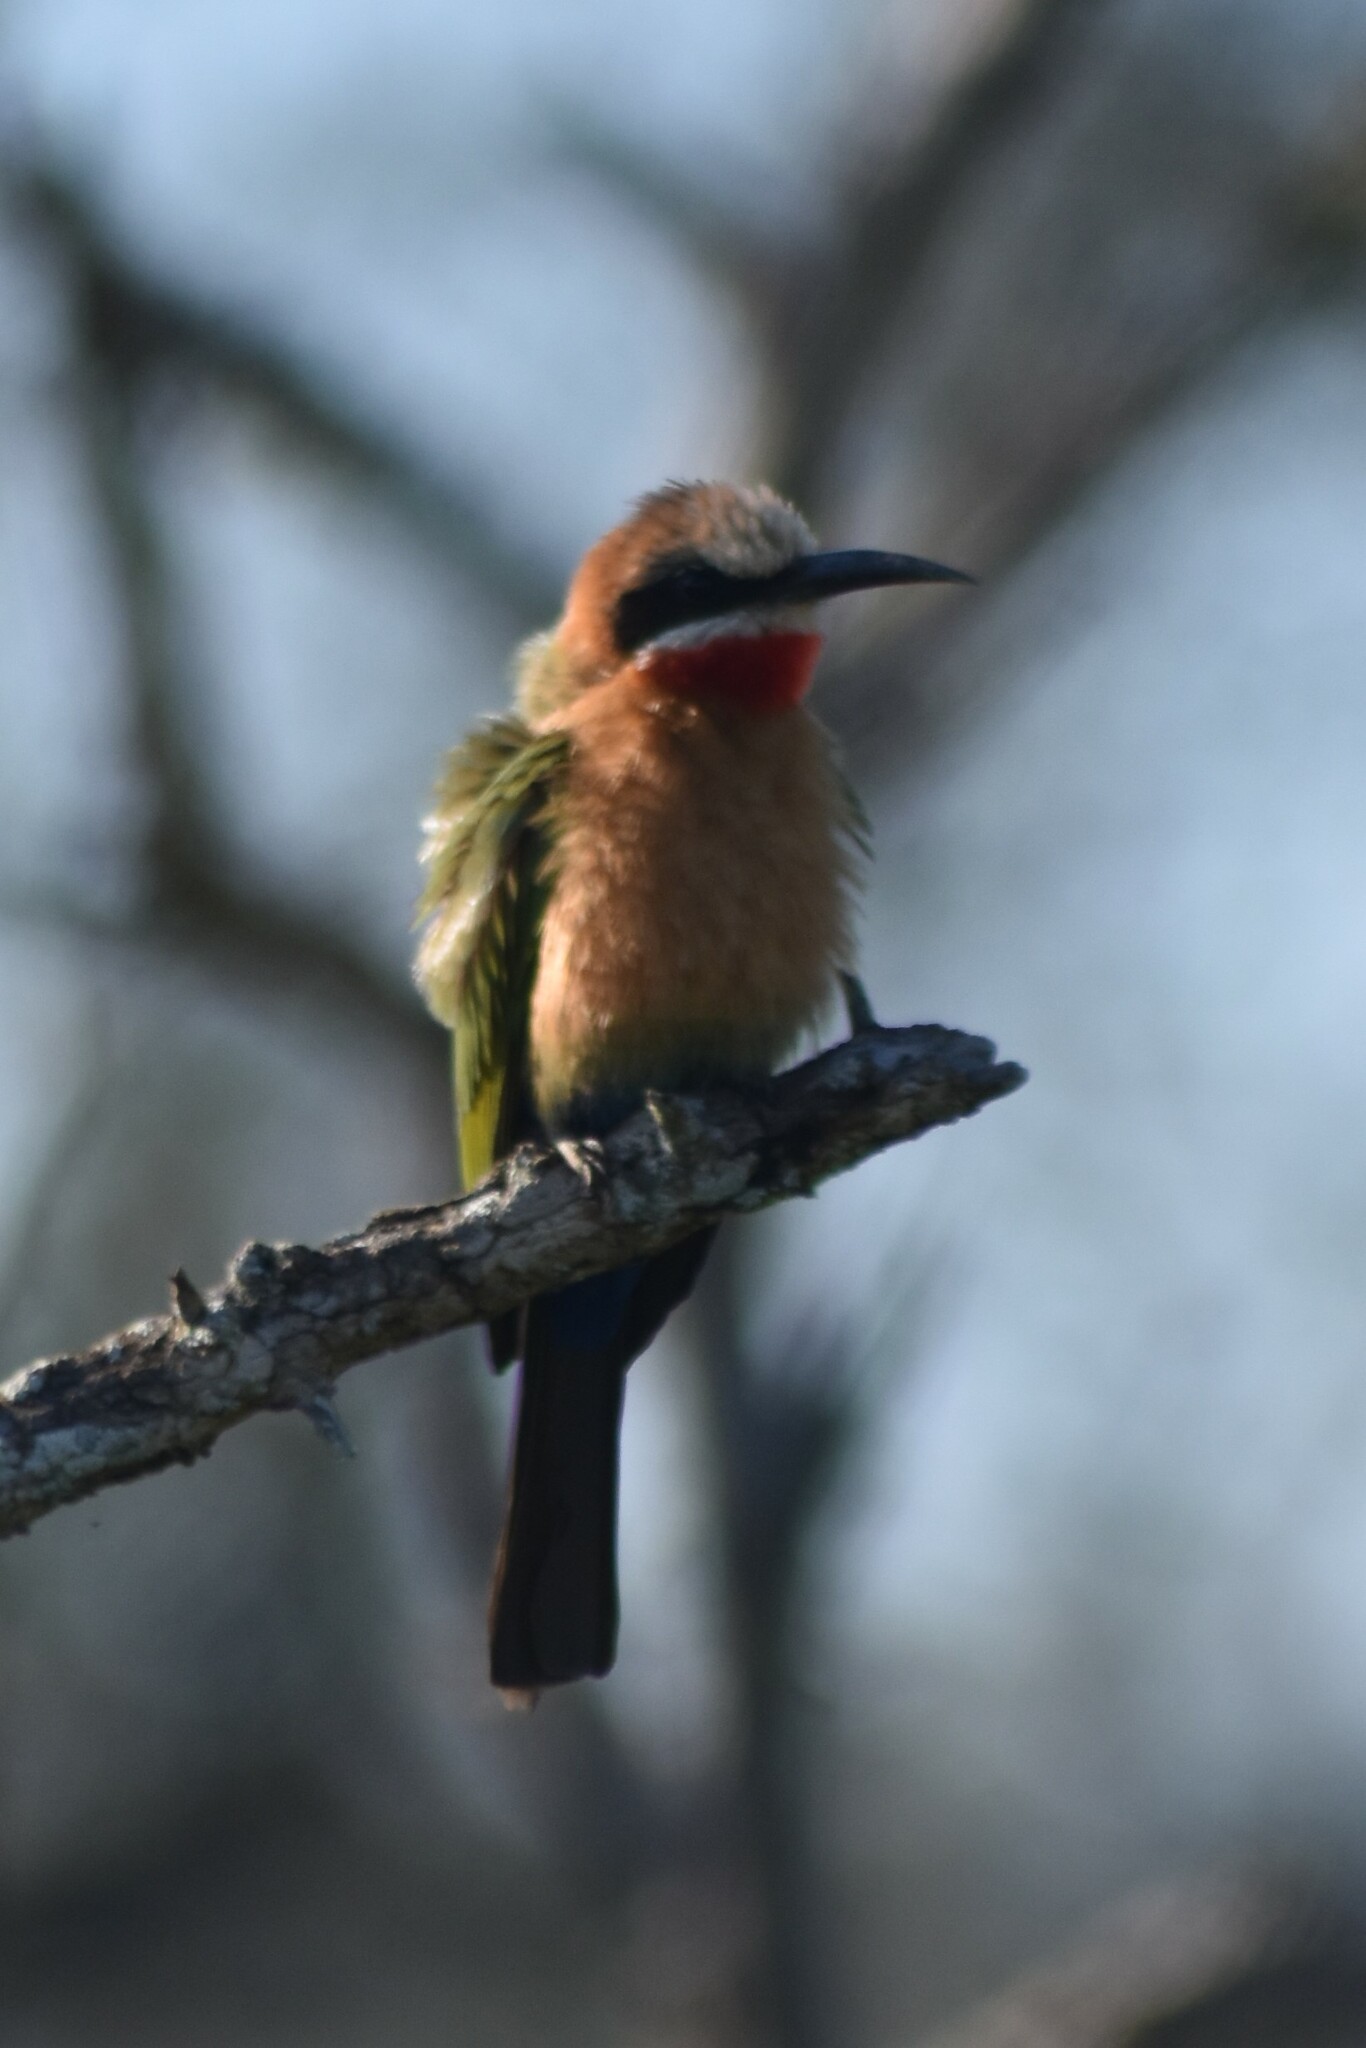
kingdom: Animalia
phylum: Chordata
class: Aves
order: Coraciiformes
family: Meropidae
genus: Merops
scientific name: Merops bullockoides
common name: White-fronted bee-eater
